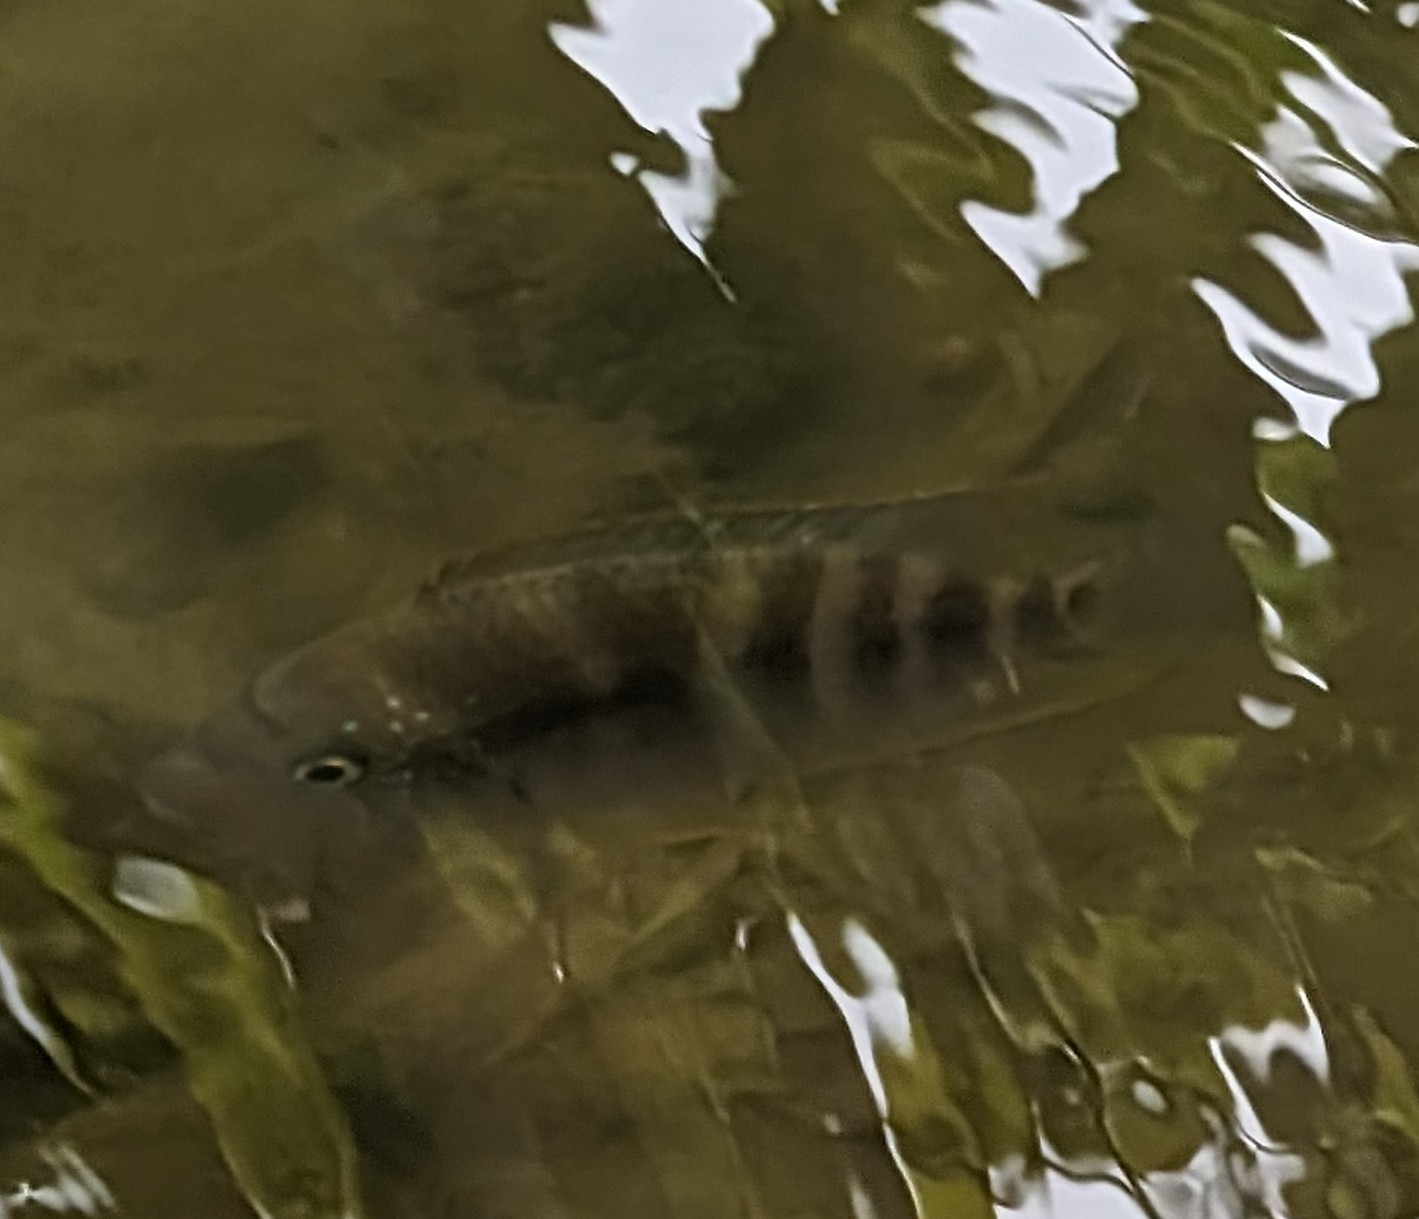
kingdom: Animalia
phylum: Chordata
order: Perciformes
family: Cichlidae
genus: Oreochromis
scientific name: Oreochromis niloticus
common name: Nile tilapia
